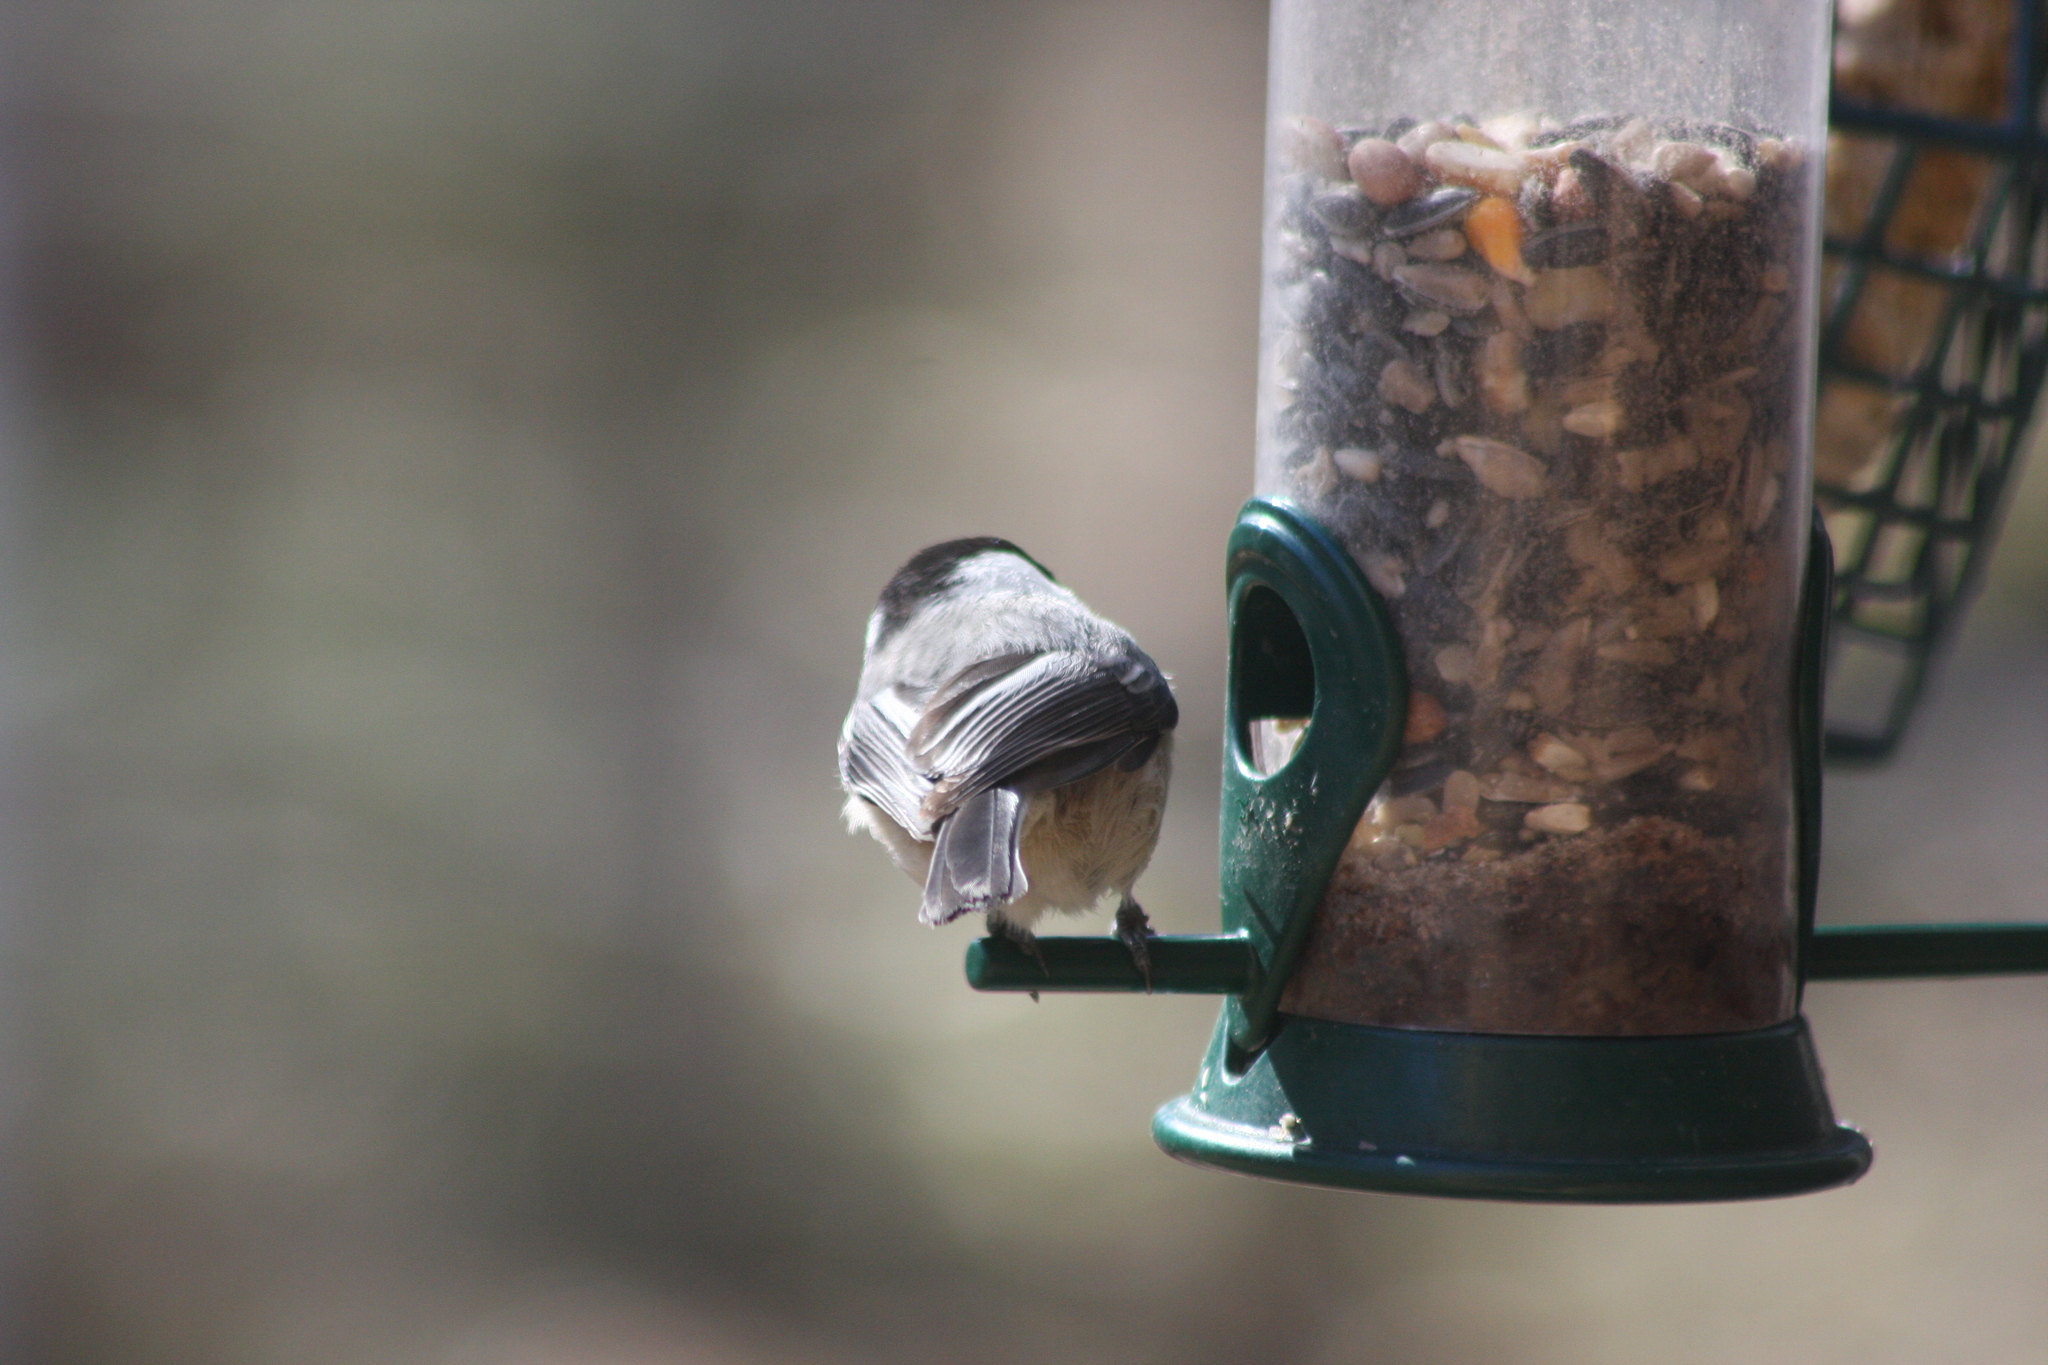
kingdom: Animalia
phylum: Chordata
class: Aves
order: Passeriformes
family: Paridae
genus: Poecile
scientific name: Poecile atricapillus
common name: Black-capped chickadee
